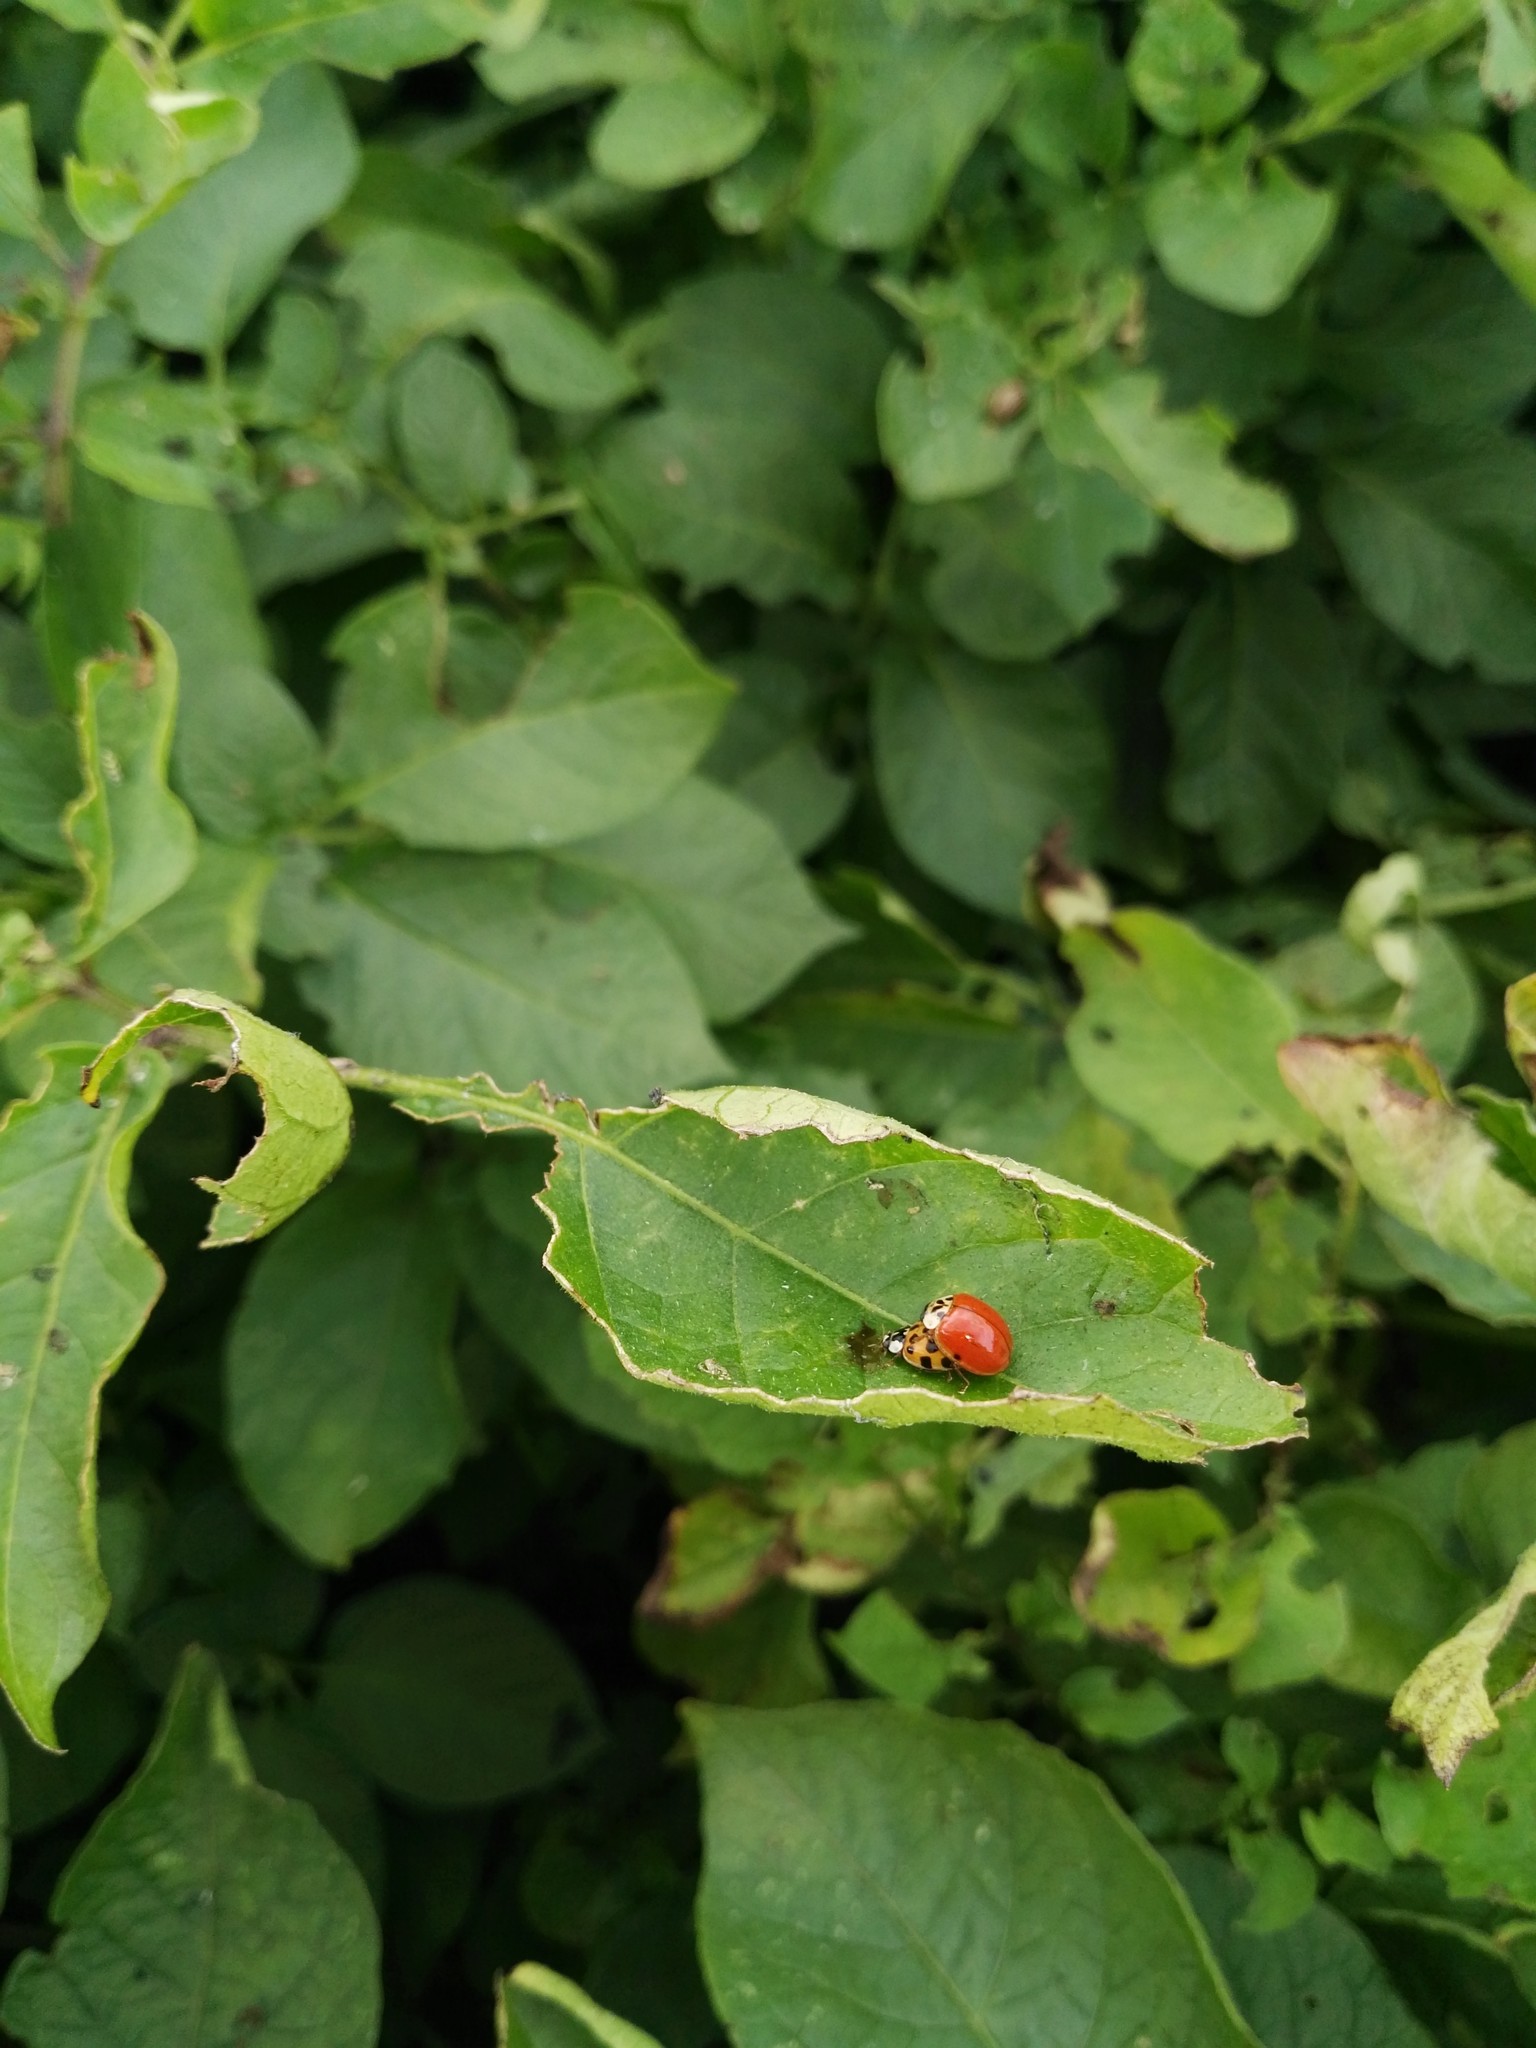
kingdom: Animalia
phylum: Arthropoda
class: Insecta
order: Coleoptera
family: Coccinellidae
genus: Harmonia
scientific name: Harmonia axyridis
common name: Harlequin ladybird
